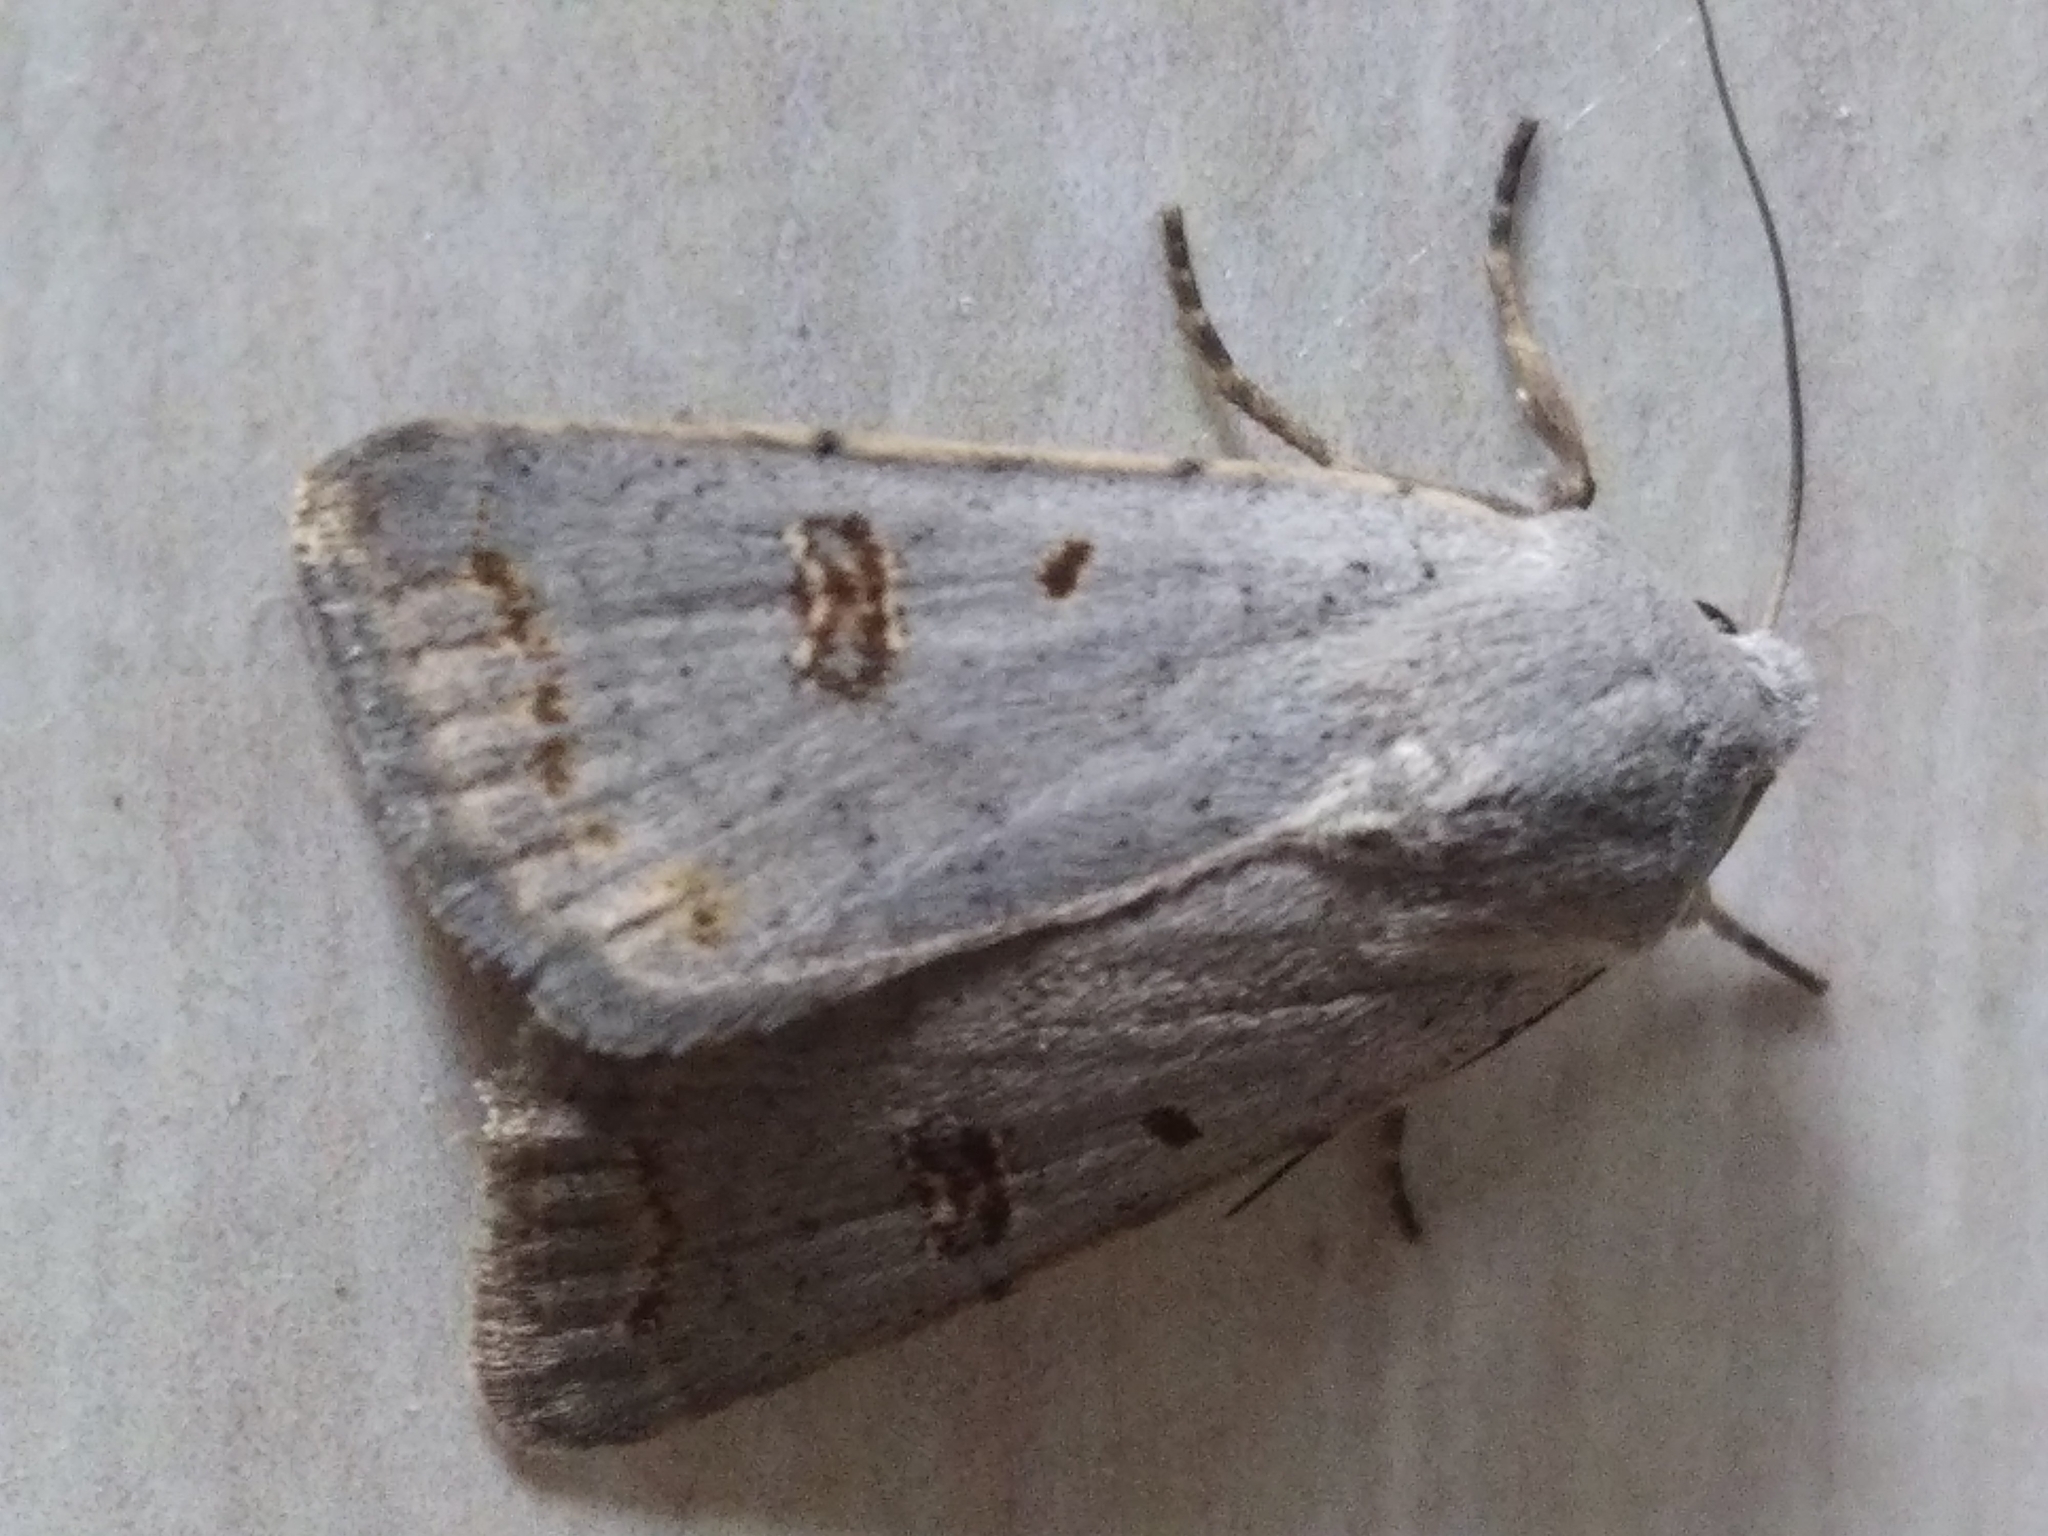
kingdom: Animalia
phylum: Arthropoda
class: Insecta
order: Lepidoptera
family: Noctuidae
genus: Caradrina
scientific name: Caradrina kadenii
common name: Clancy's rustic
